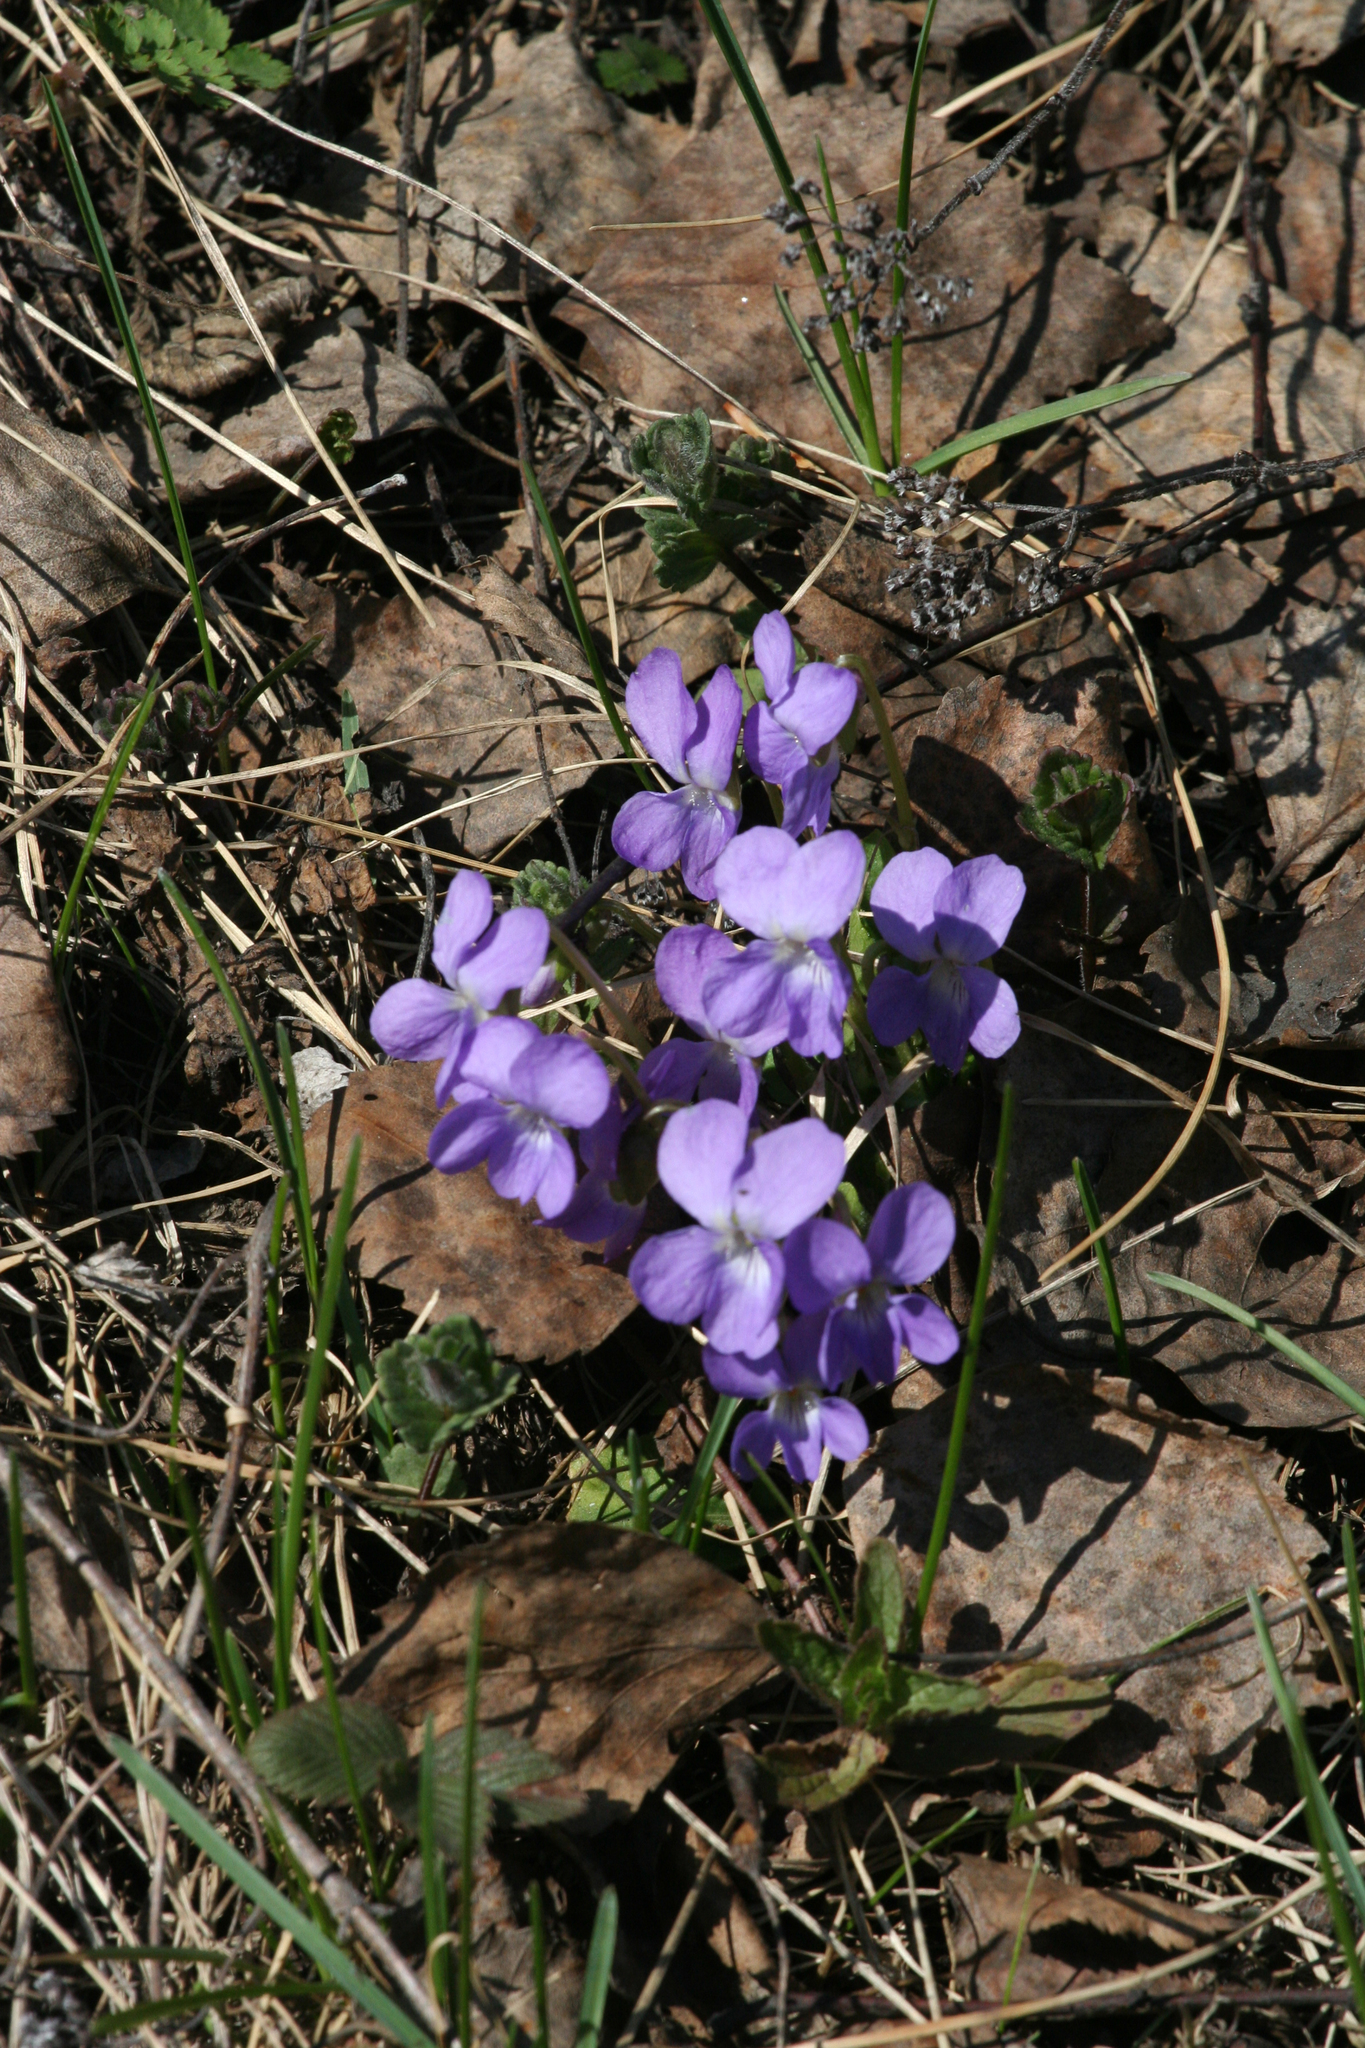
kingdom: Plantae
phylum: Tracheophyta
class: Magnoliopsida
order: Malpighiales
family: Violaceae
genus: Viola
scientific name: Viola hirta
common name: Hairy violet
